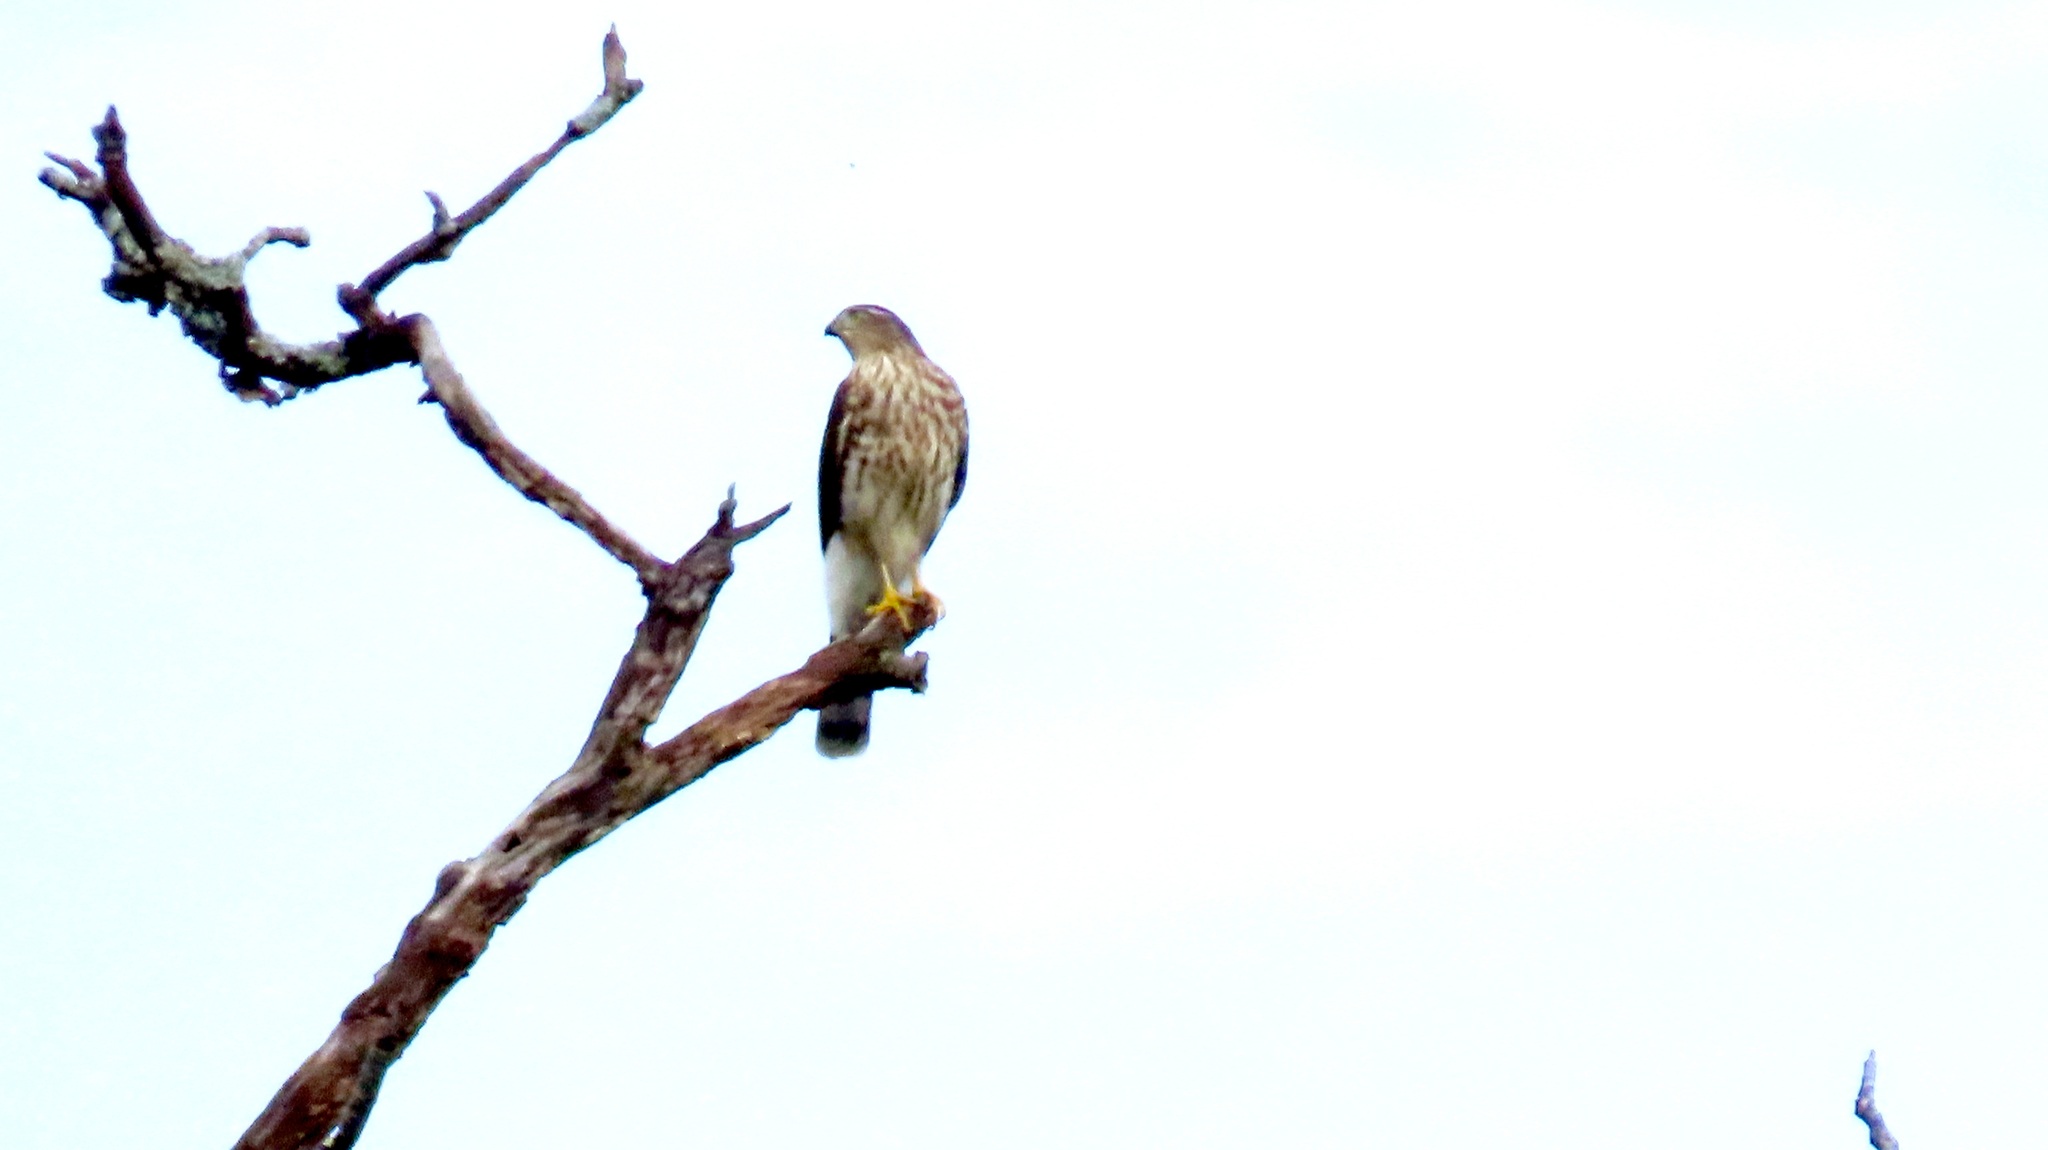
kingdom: Animalia
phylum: Chordata
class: Aves
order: Accipitriformes
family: Accipitridae
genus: Accipiter
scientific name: Accipiter striatus
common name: Sharp-shinned hawk
